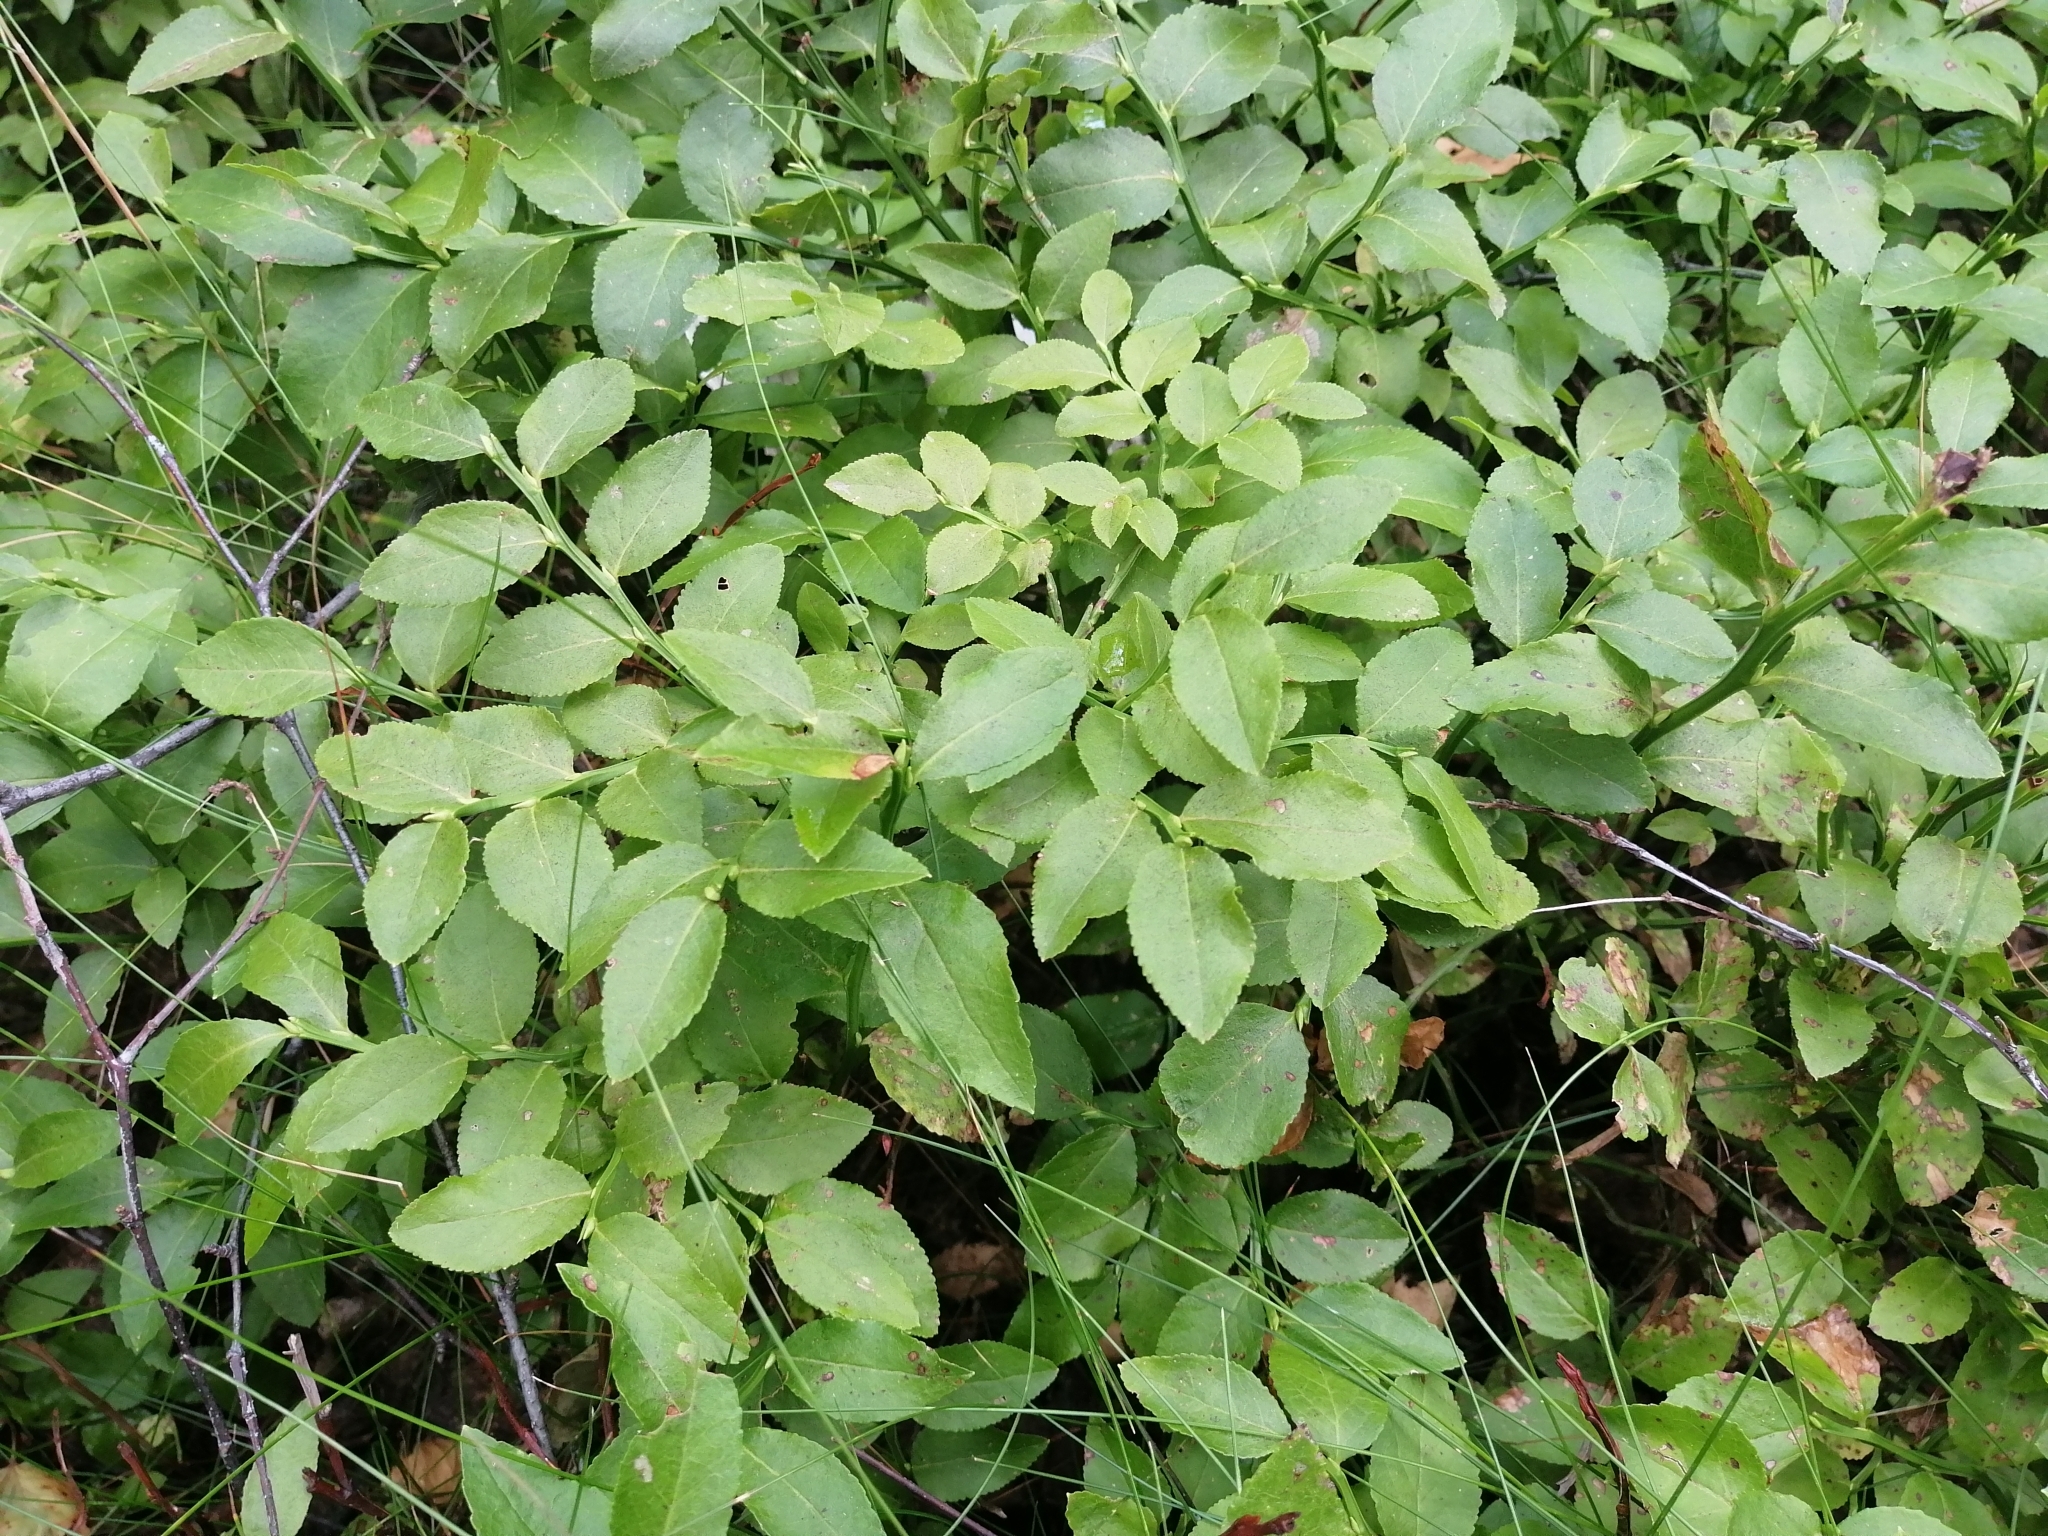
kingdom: Plantae
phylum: Tracheophyta
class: Magnoliopsida
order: Ericales
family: Ericaceae
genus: Vaccinium
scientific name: Vaccinium myrtillus
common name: Bilberry
